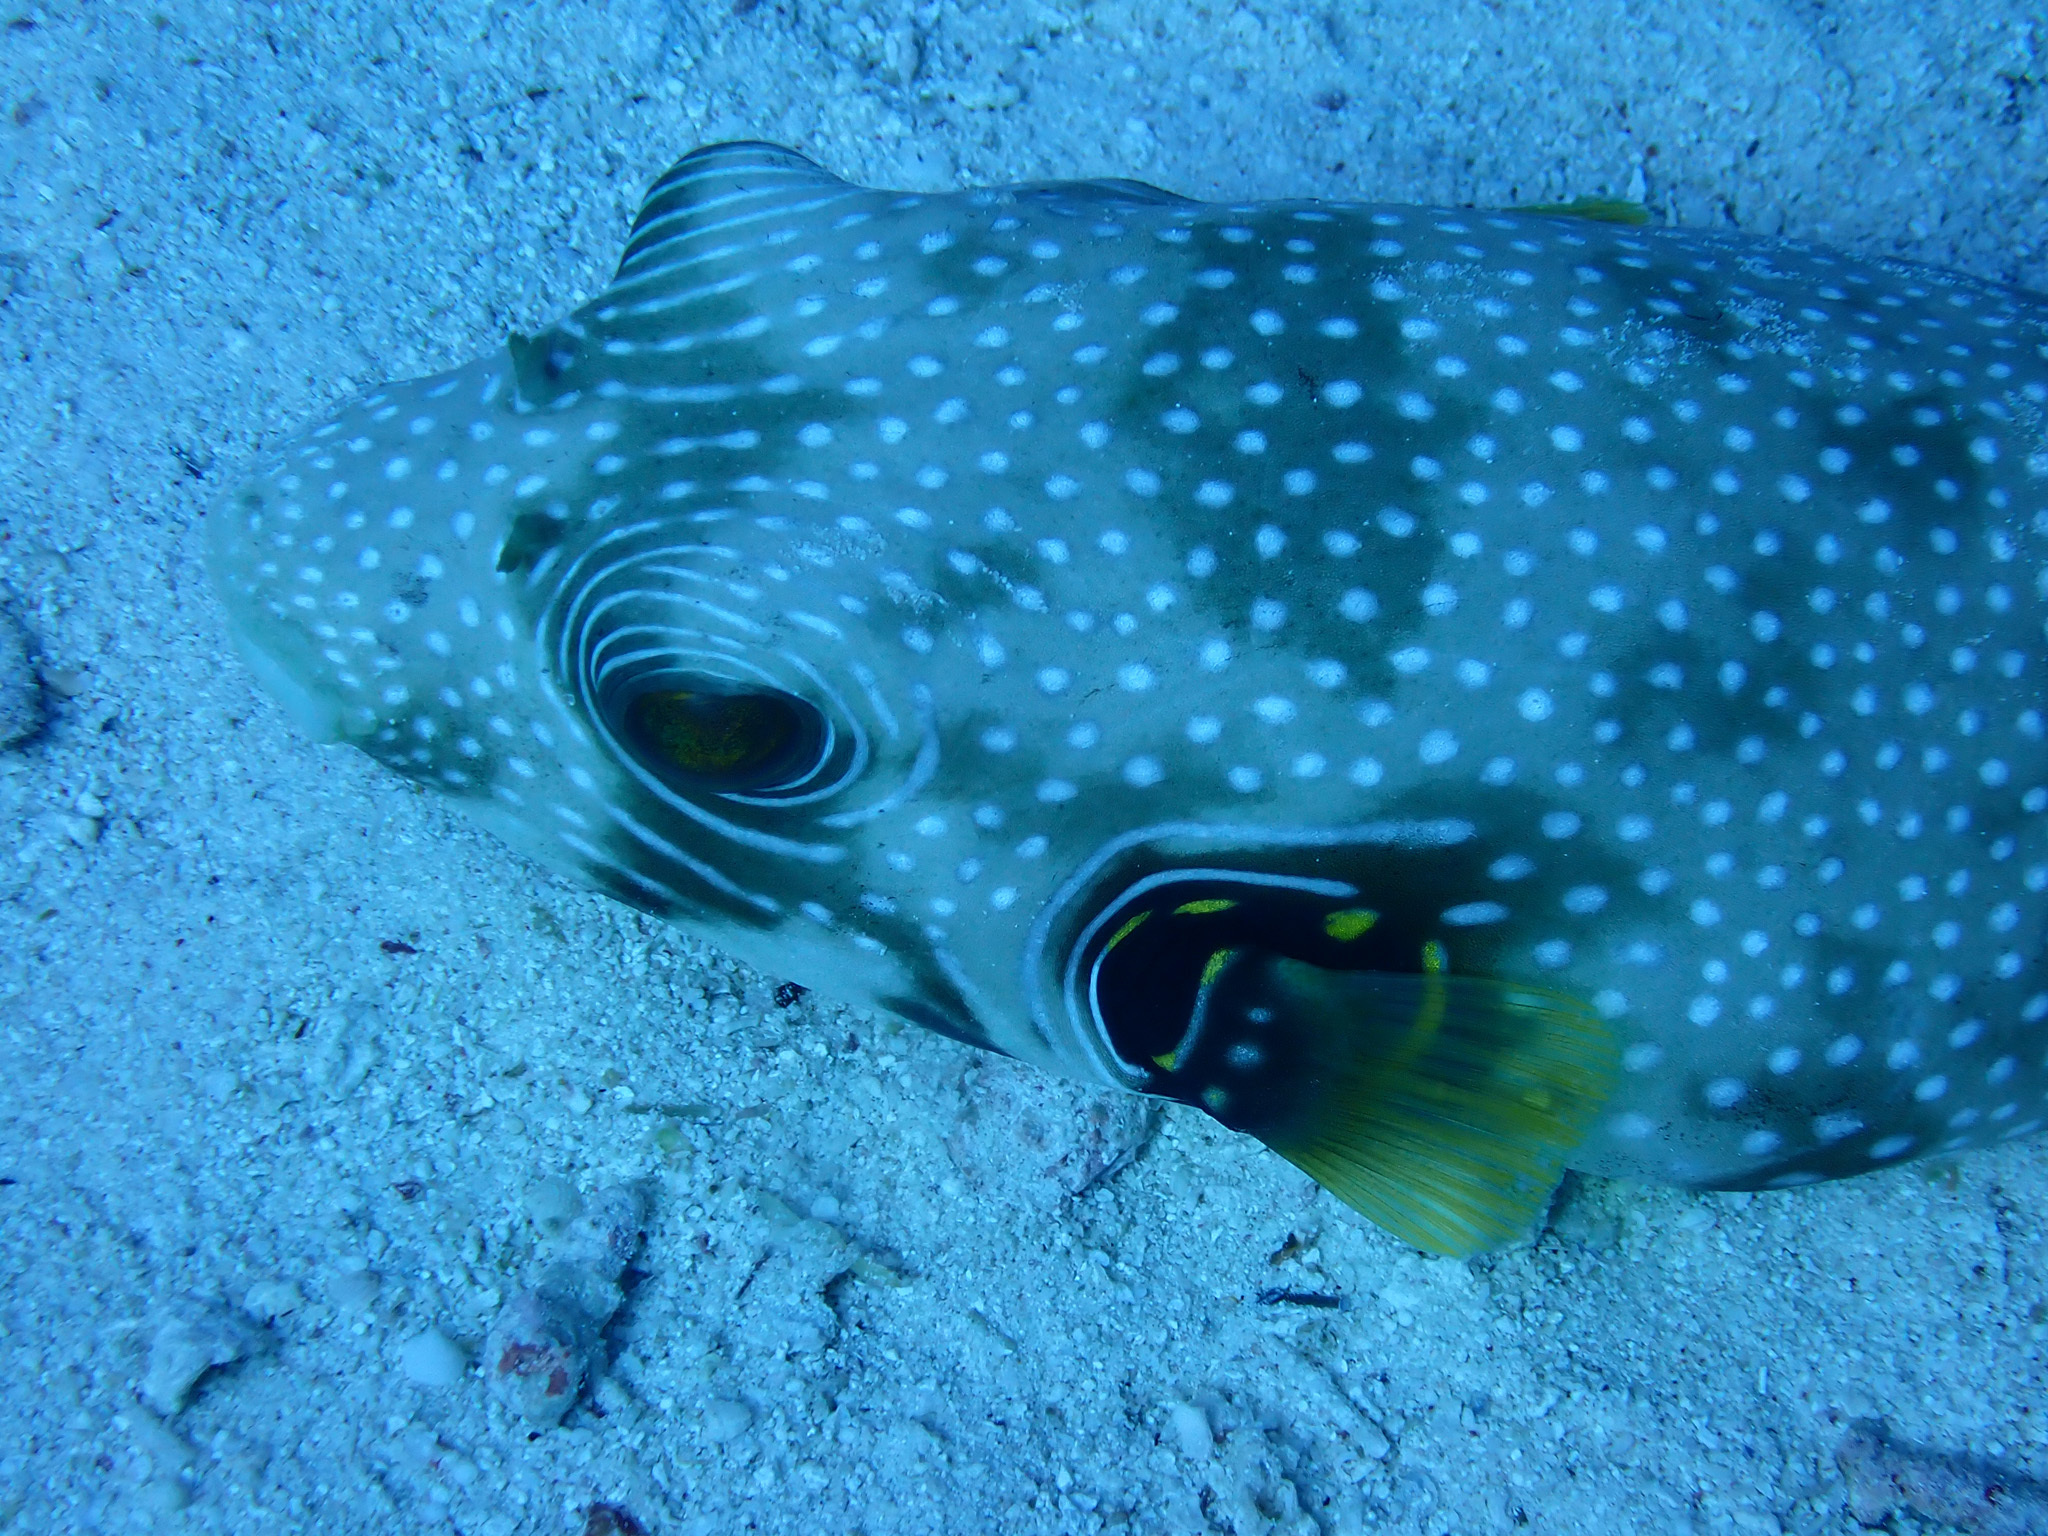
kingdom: Animalia
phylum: Chordata
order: Tetraodontiformes
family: Tetraodontidae
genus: Arothron
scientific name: Arothron hispidus
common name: Stripebelly puffer
